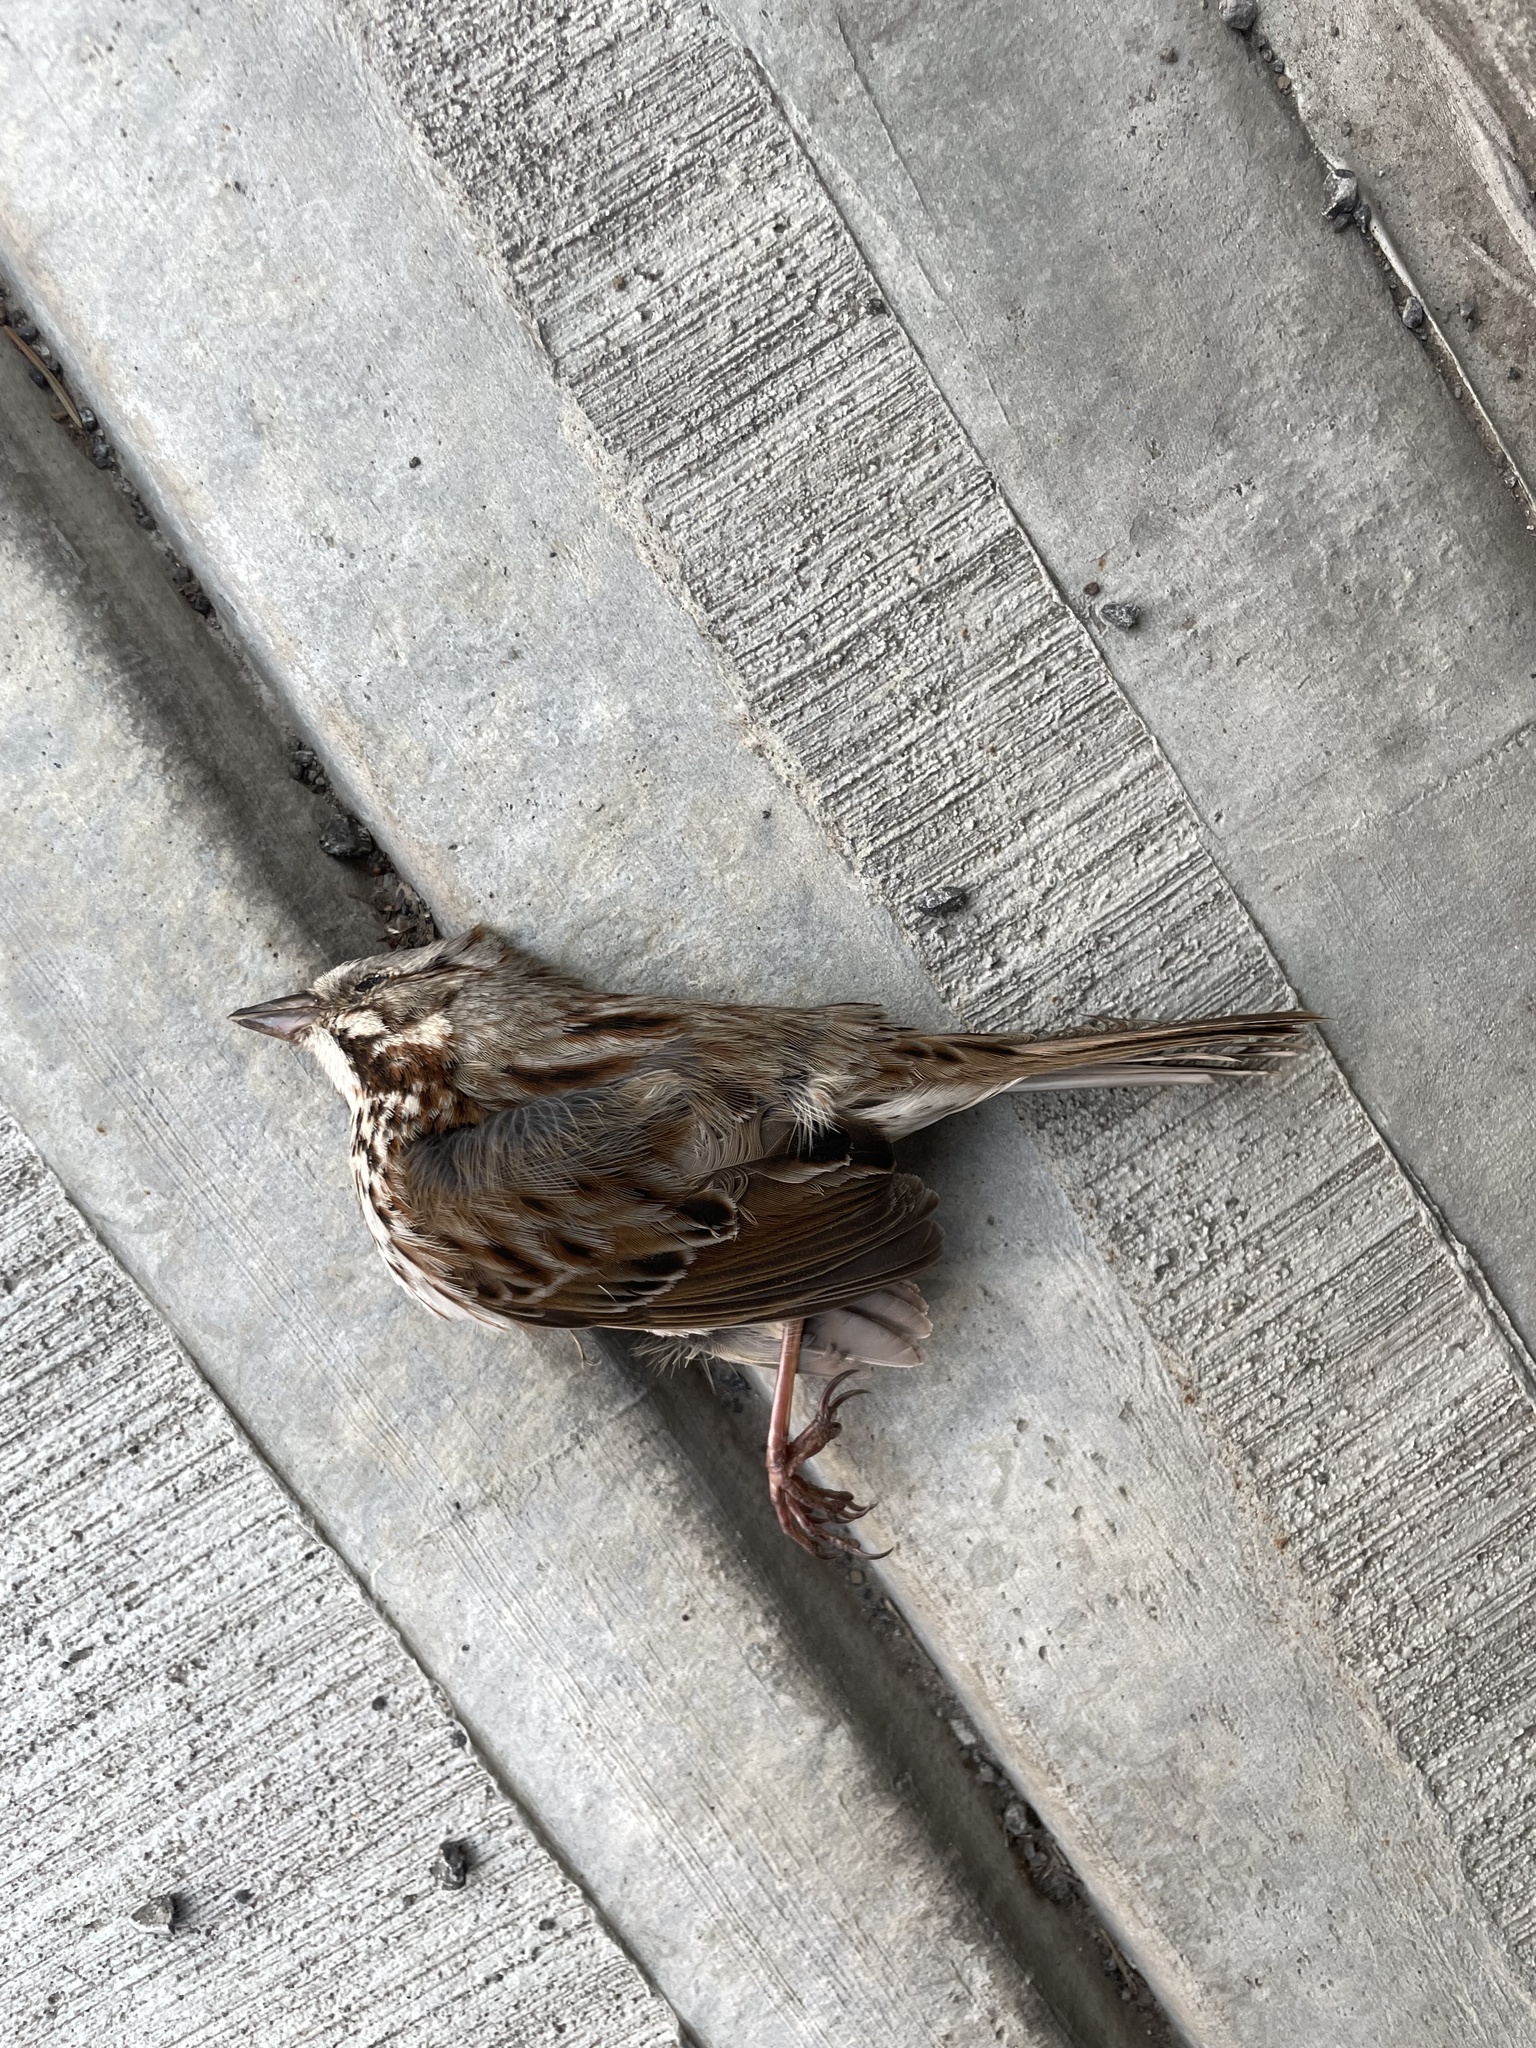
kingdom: Animalia
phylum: Chordata
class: Aves
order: Passeriformes
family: Passerellidae
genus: Melospiza
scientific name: Melospiza melodia
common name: Song sparrow
